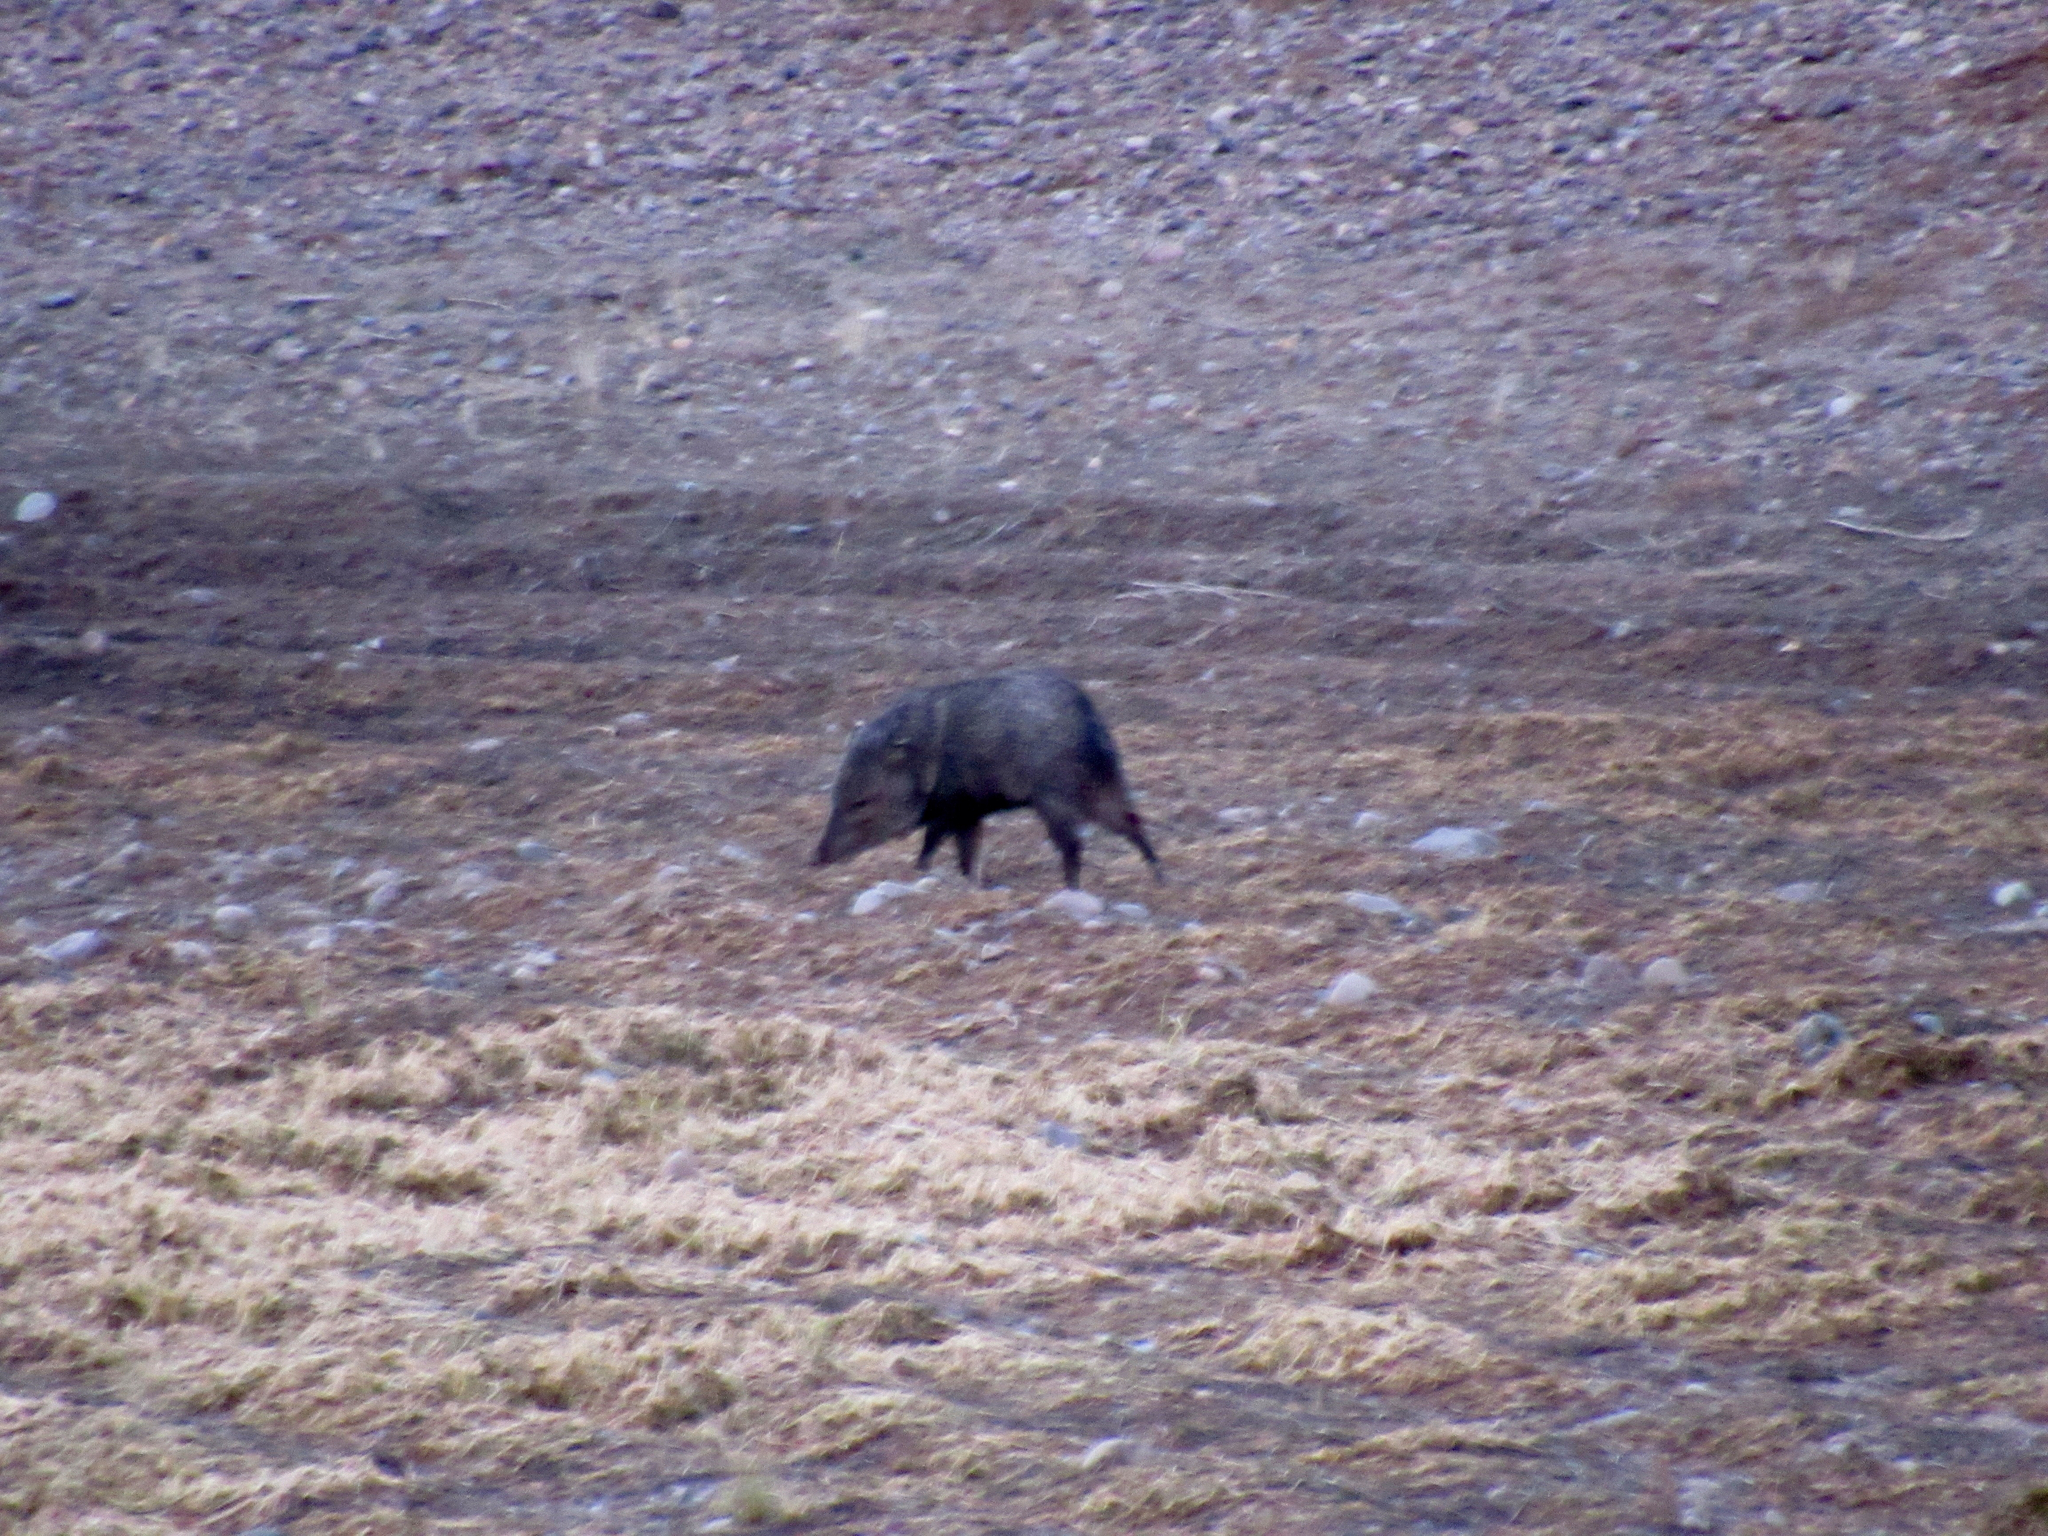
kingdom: Animalia
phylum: Chordata
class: Mammalia
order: Artiodactyla
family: Tayassuidae
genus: Pecari
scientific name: Pecari tajacu
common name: Collared peccary
